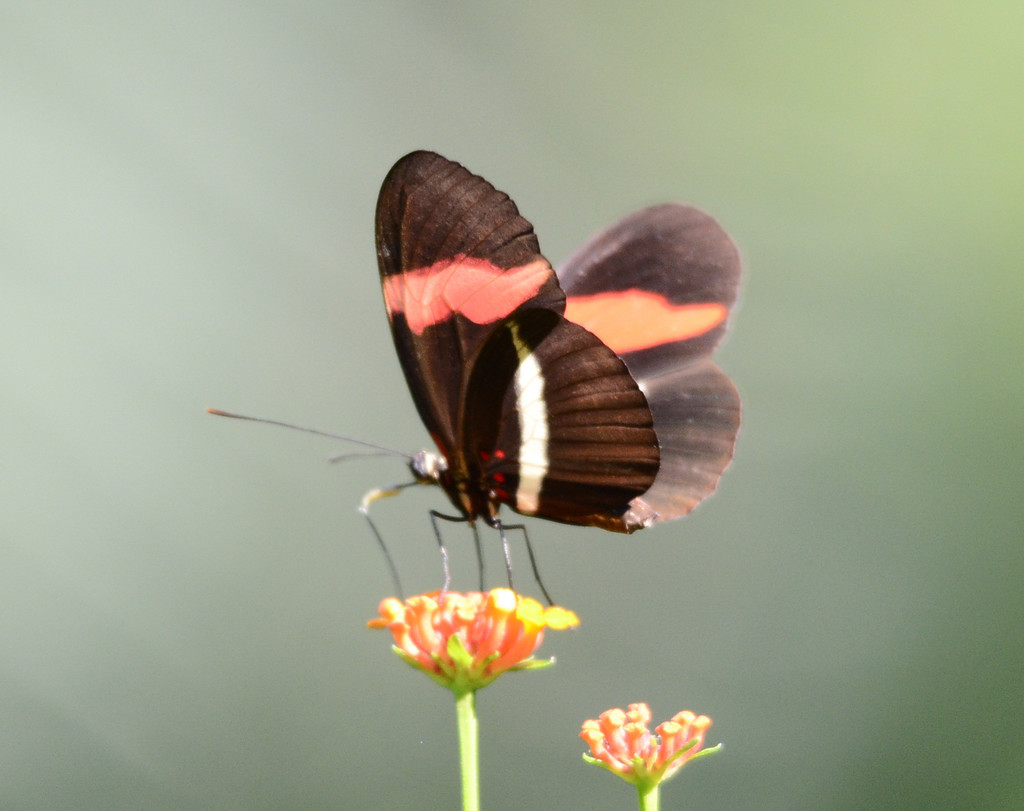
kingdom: Animalia
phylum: Arthropoda
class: Insecta
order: Lepidoptera
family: Nymphalidae
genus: Heliconius
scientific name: Heliconius erato
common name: Common patch longwing
